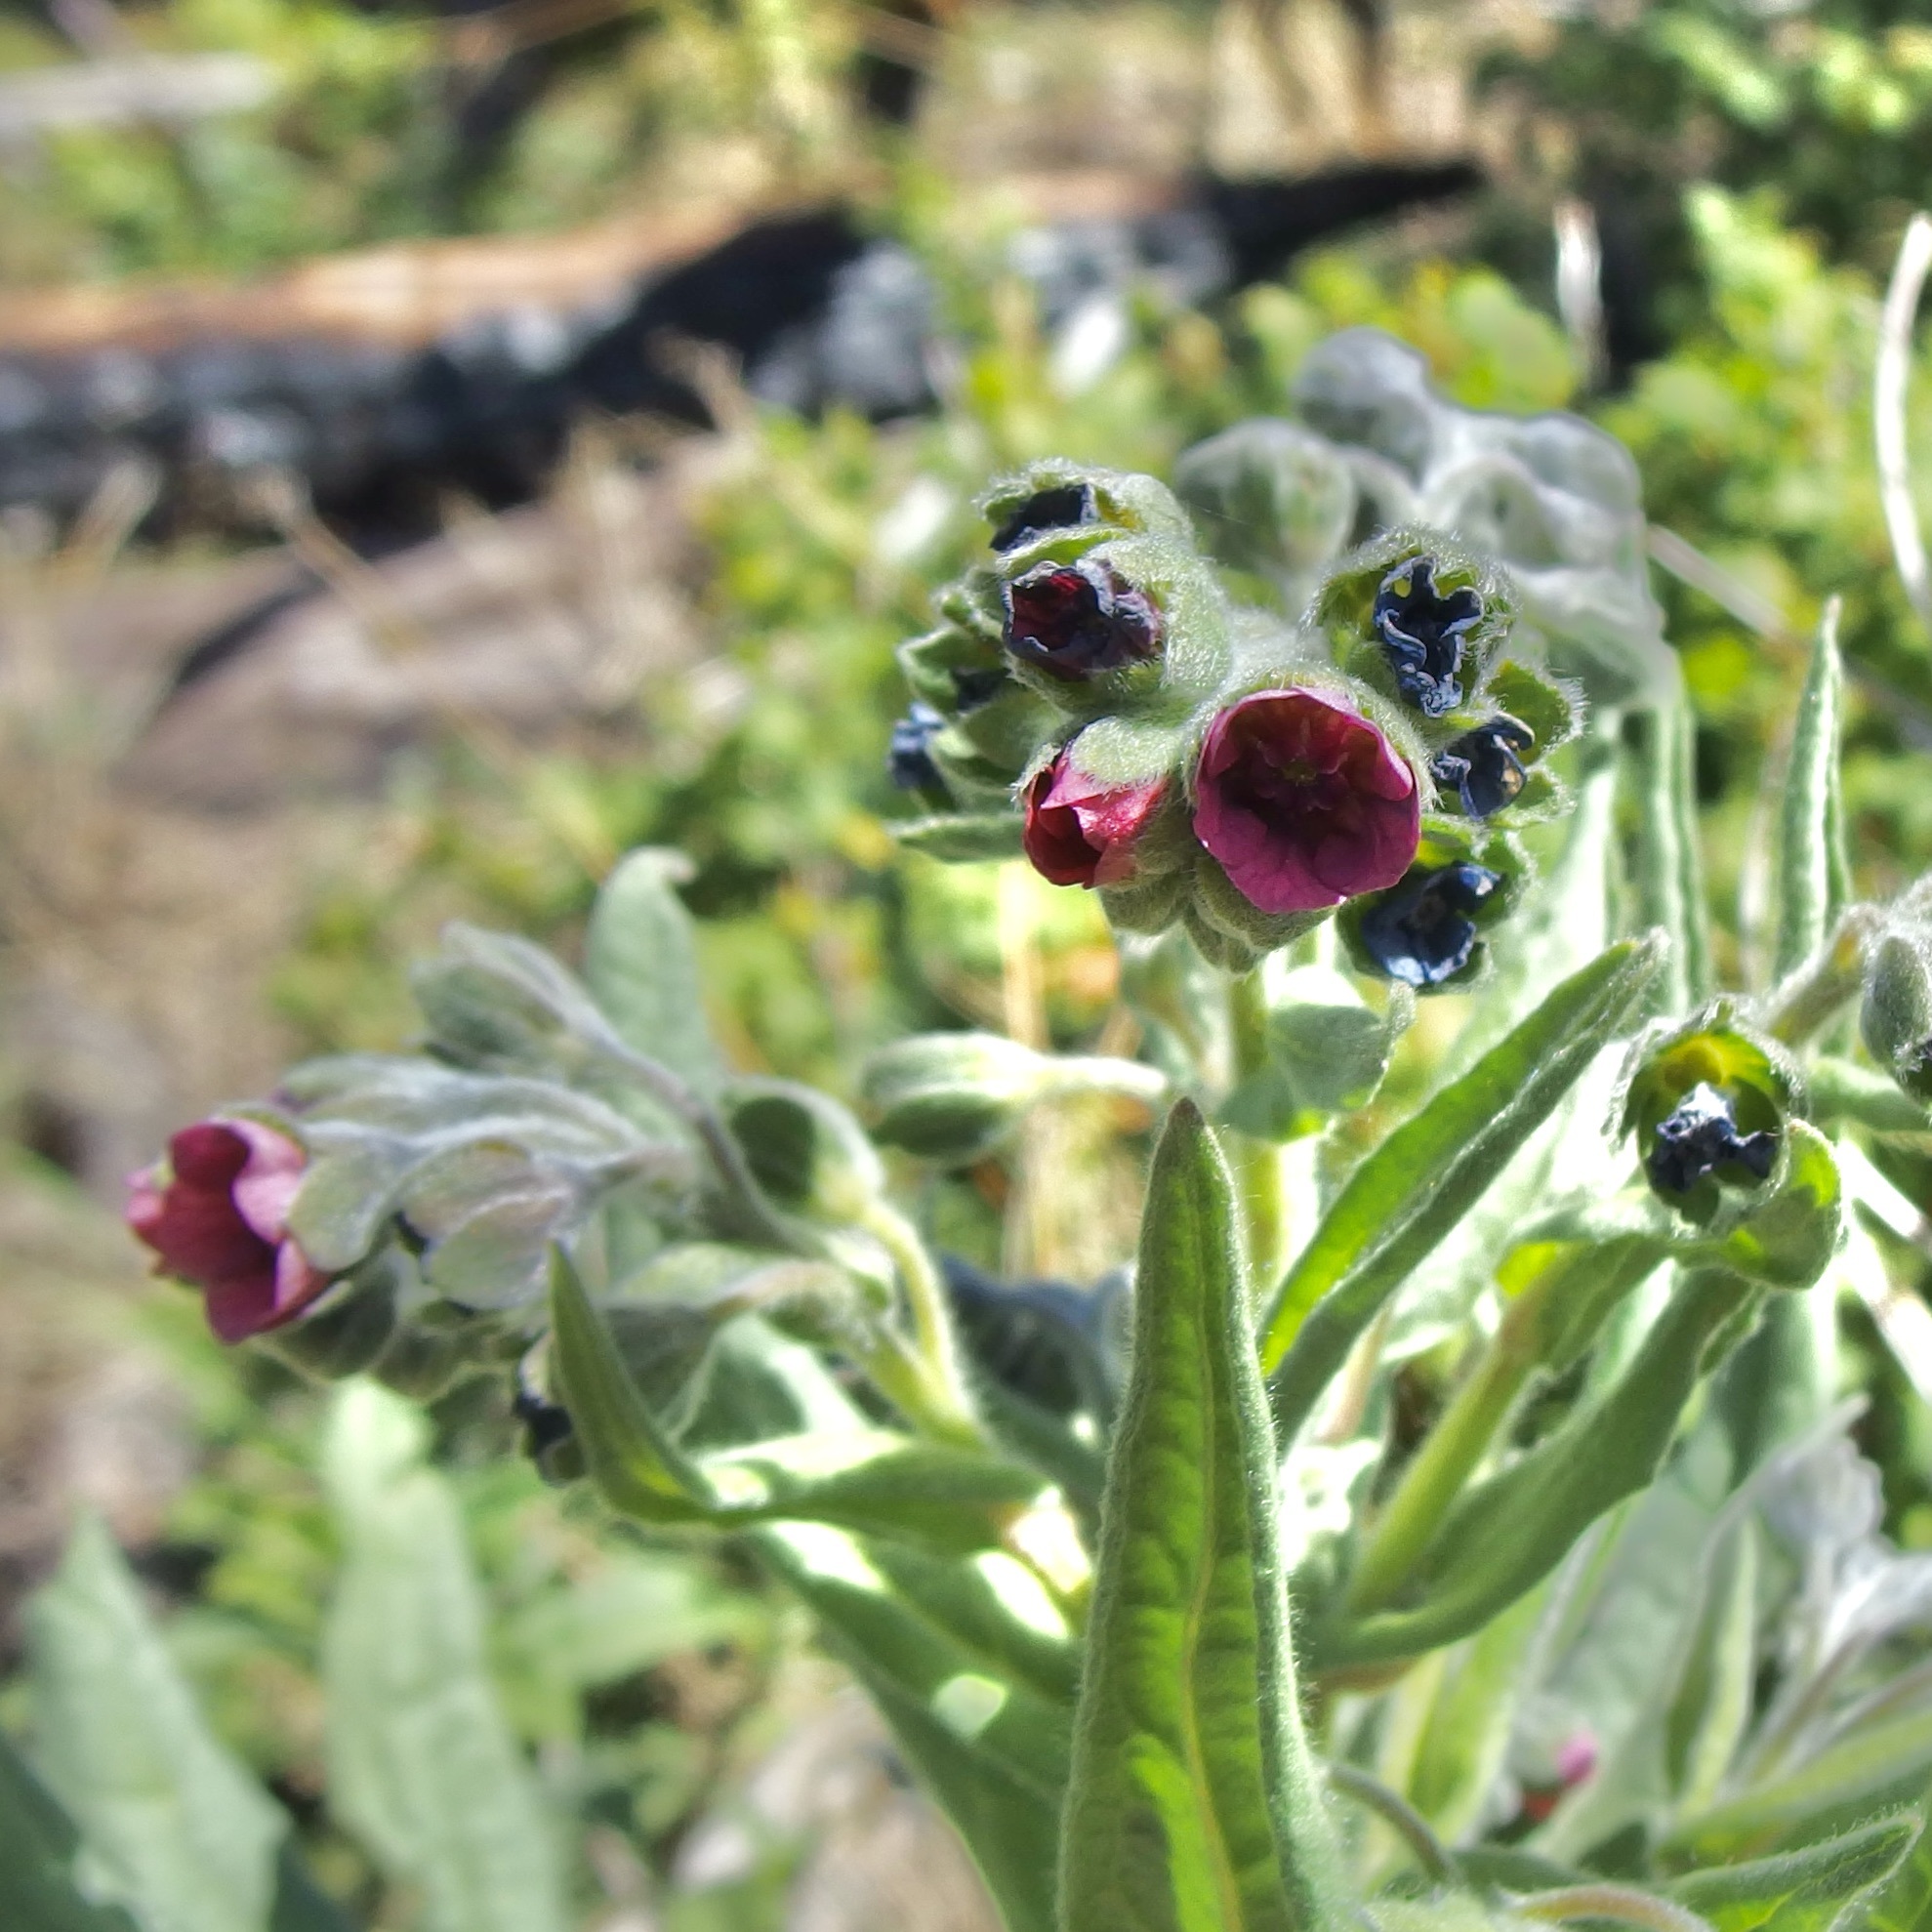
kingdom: Plantae
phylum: Tracheophyta
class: Magnoliopsida
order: Boraginales
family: Boraginaceae
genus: Cynoglossum
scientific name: Cynoglossum officinale
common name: Hound's-tongue
